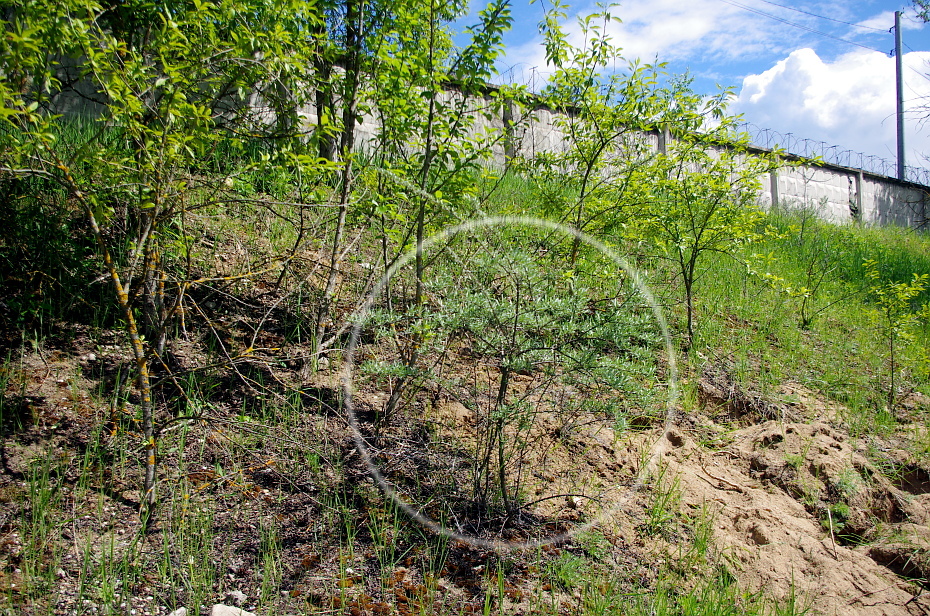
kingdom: Plantae
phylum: Tracheophyta
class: Magnoliopsida
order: Rosales
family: Elaeagnaceae
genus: Hippophae
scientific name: Hippophae rhamnoides
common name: Sea-buckthorn
